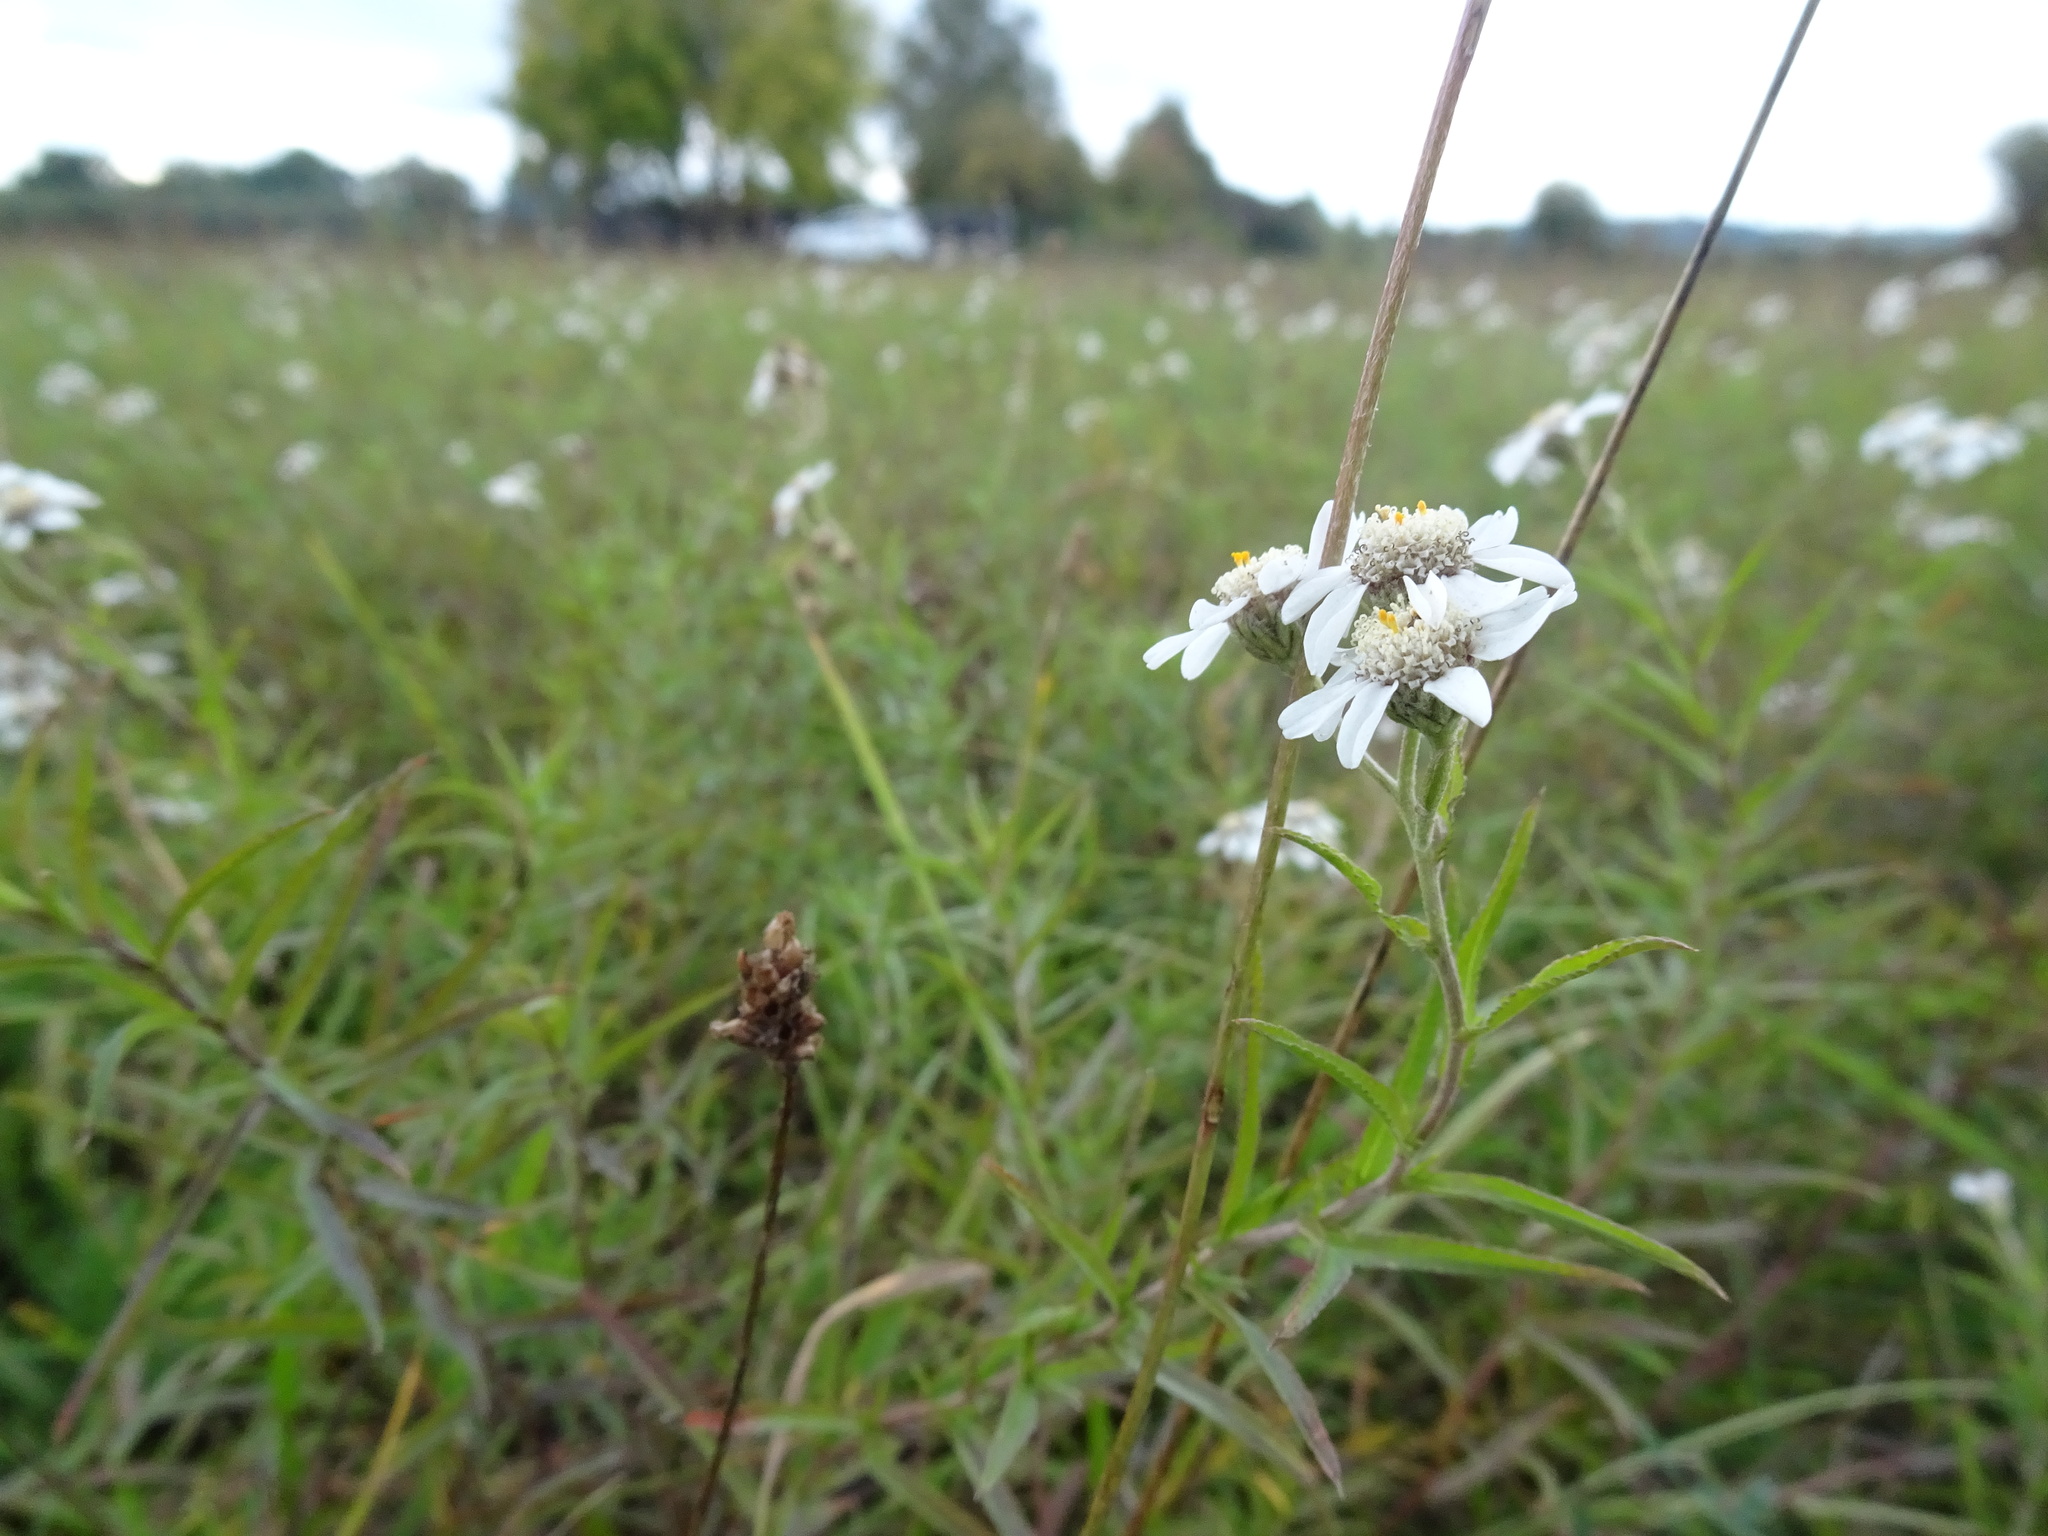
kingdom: Plantae
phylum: Tracheophyta
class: Magnoliopsida
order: Asterales
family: Asteraceae
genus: Achillea
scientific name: Achillea ptarmica
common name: Sneezeweed
